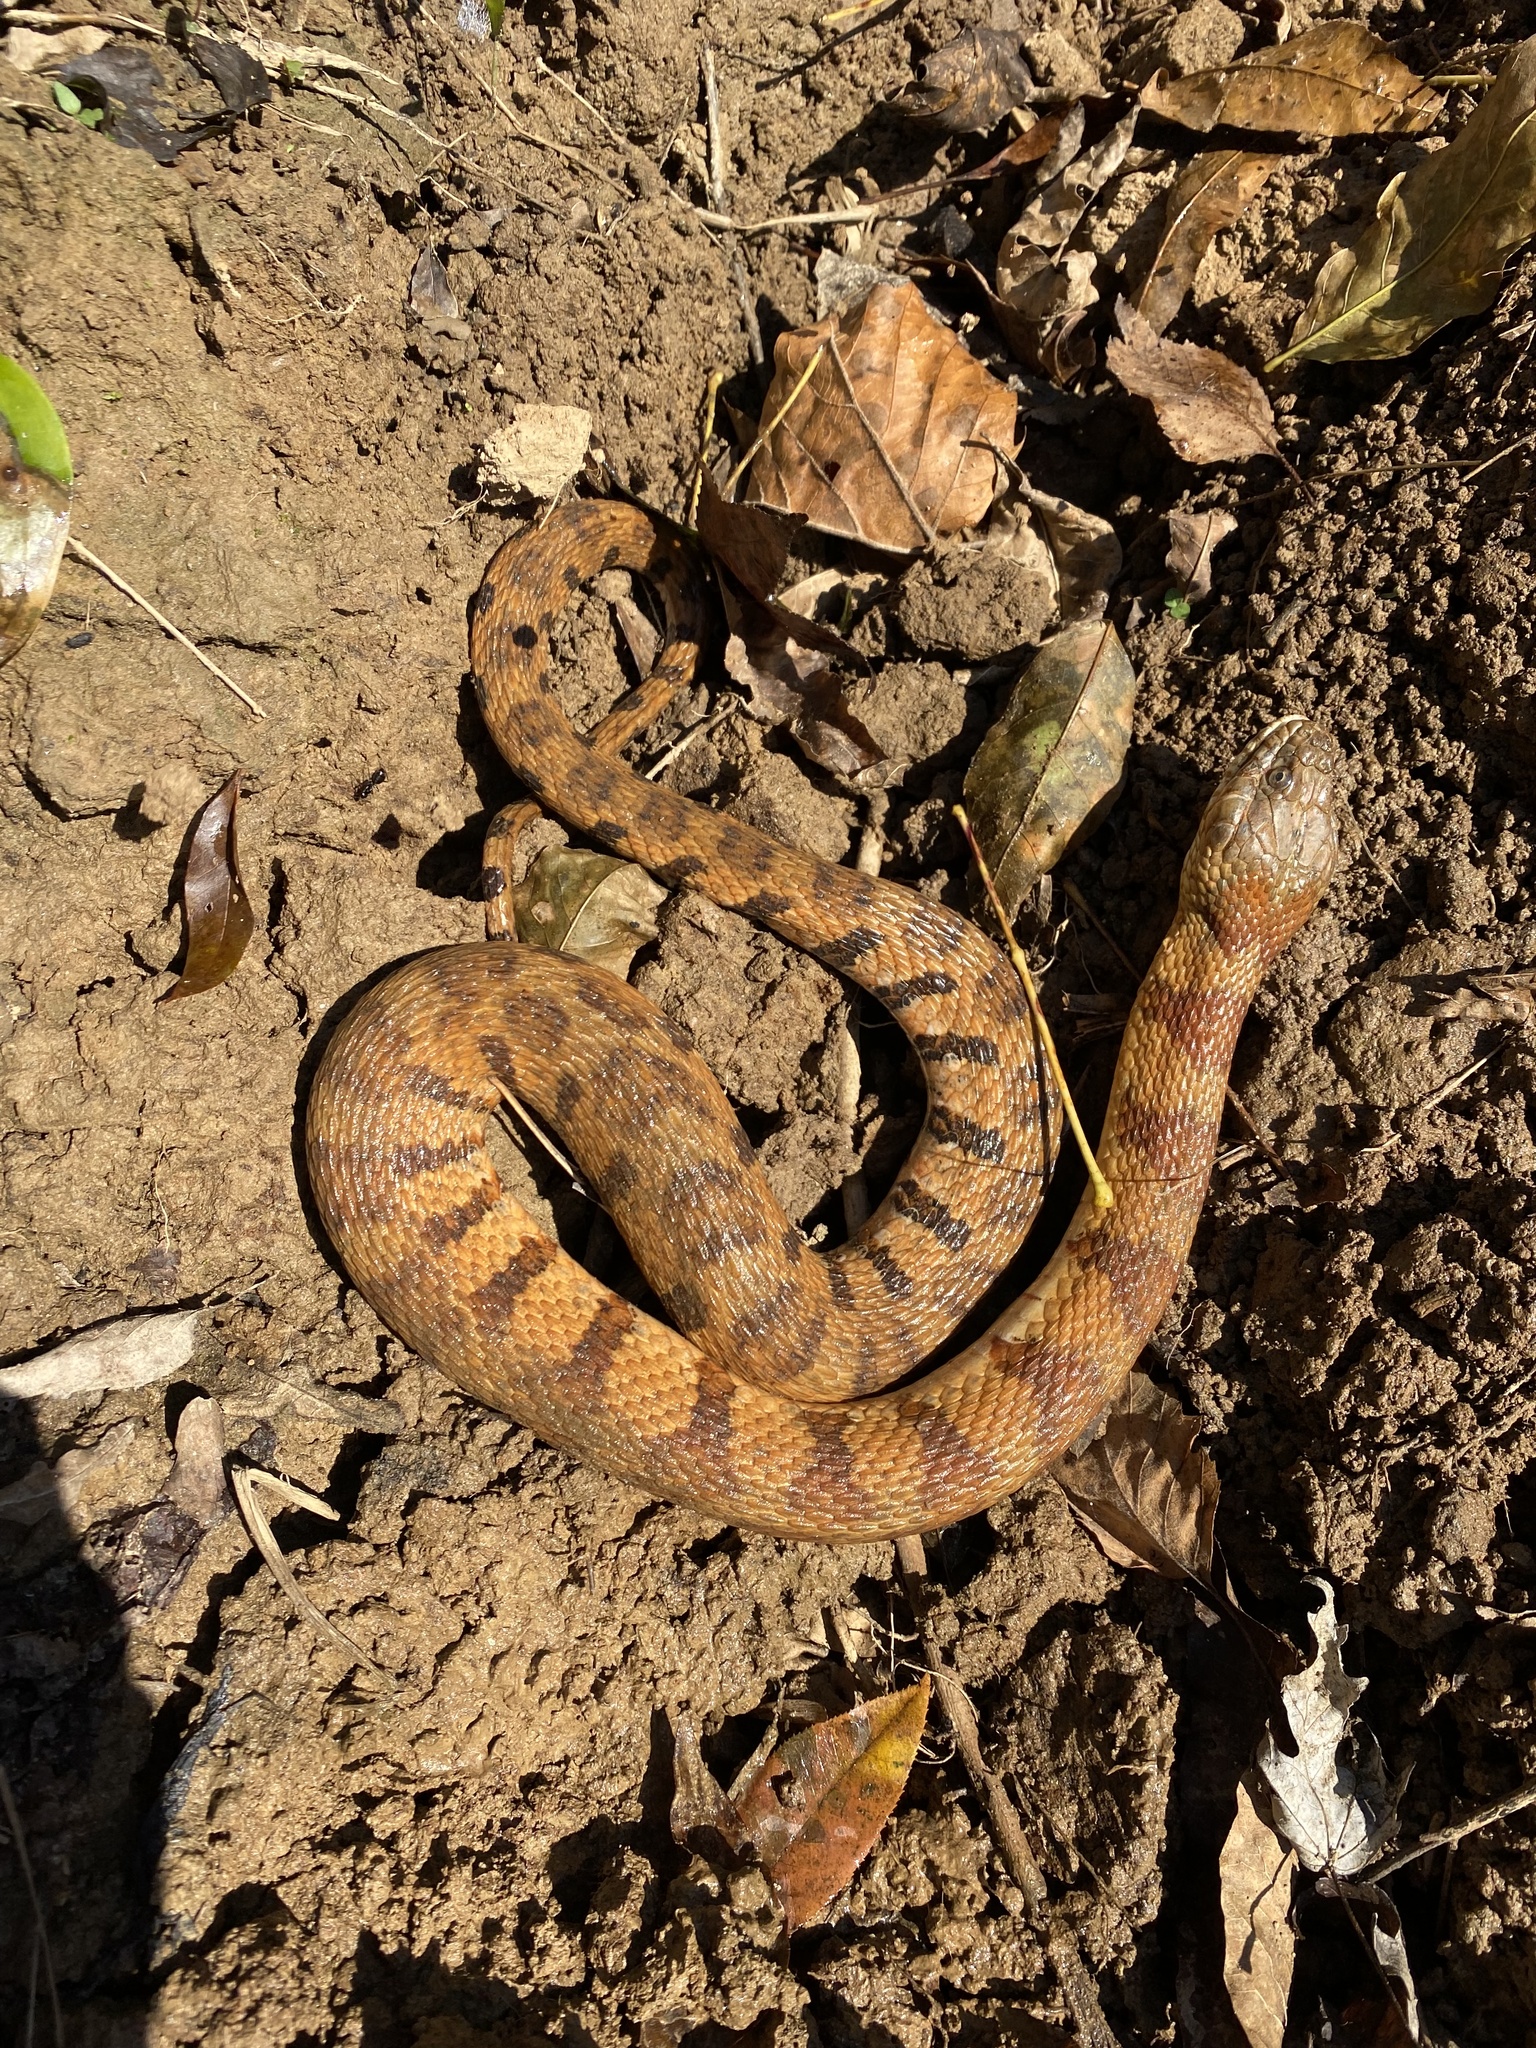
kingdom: Animalia
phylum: Chordata
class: Squamata
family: Colubridae
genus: Nerodia
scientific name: Nerodia sipedon
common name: Northern water snake
